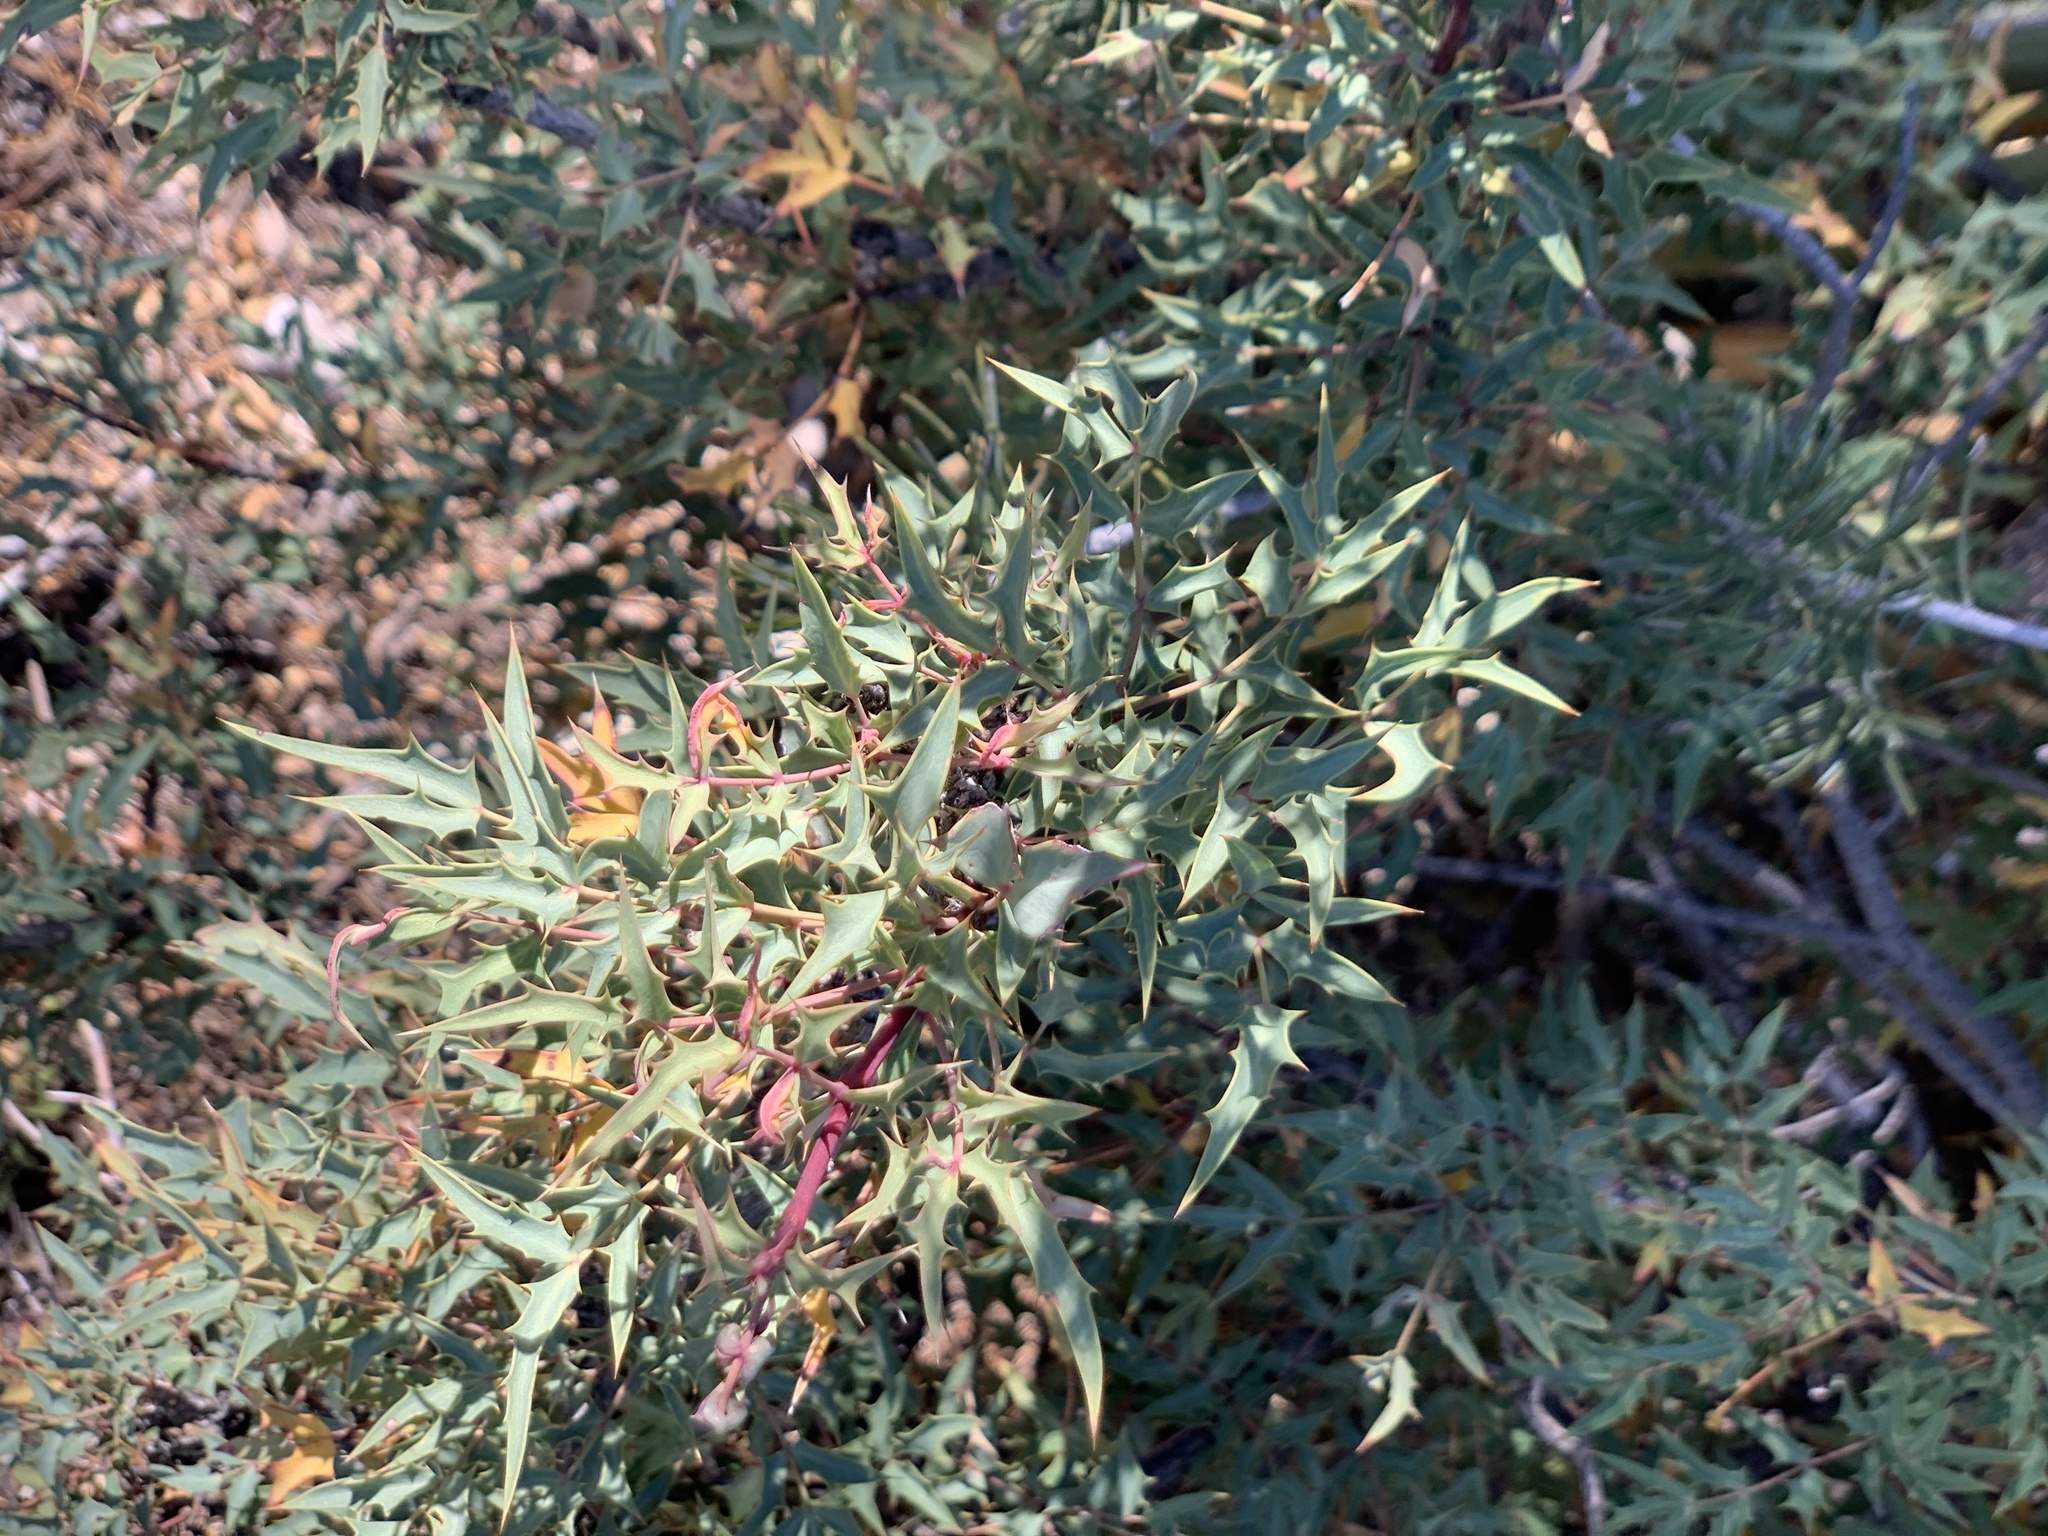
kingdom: Plantae
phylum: Tracheophyta
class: Magnoliopsida
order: Ranunculales
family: Berberidaceae
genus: Alloberberis
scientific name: Alloberberis haematocarpa
